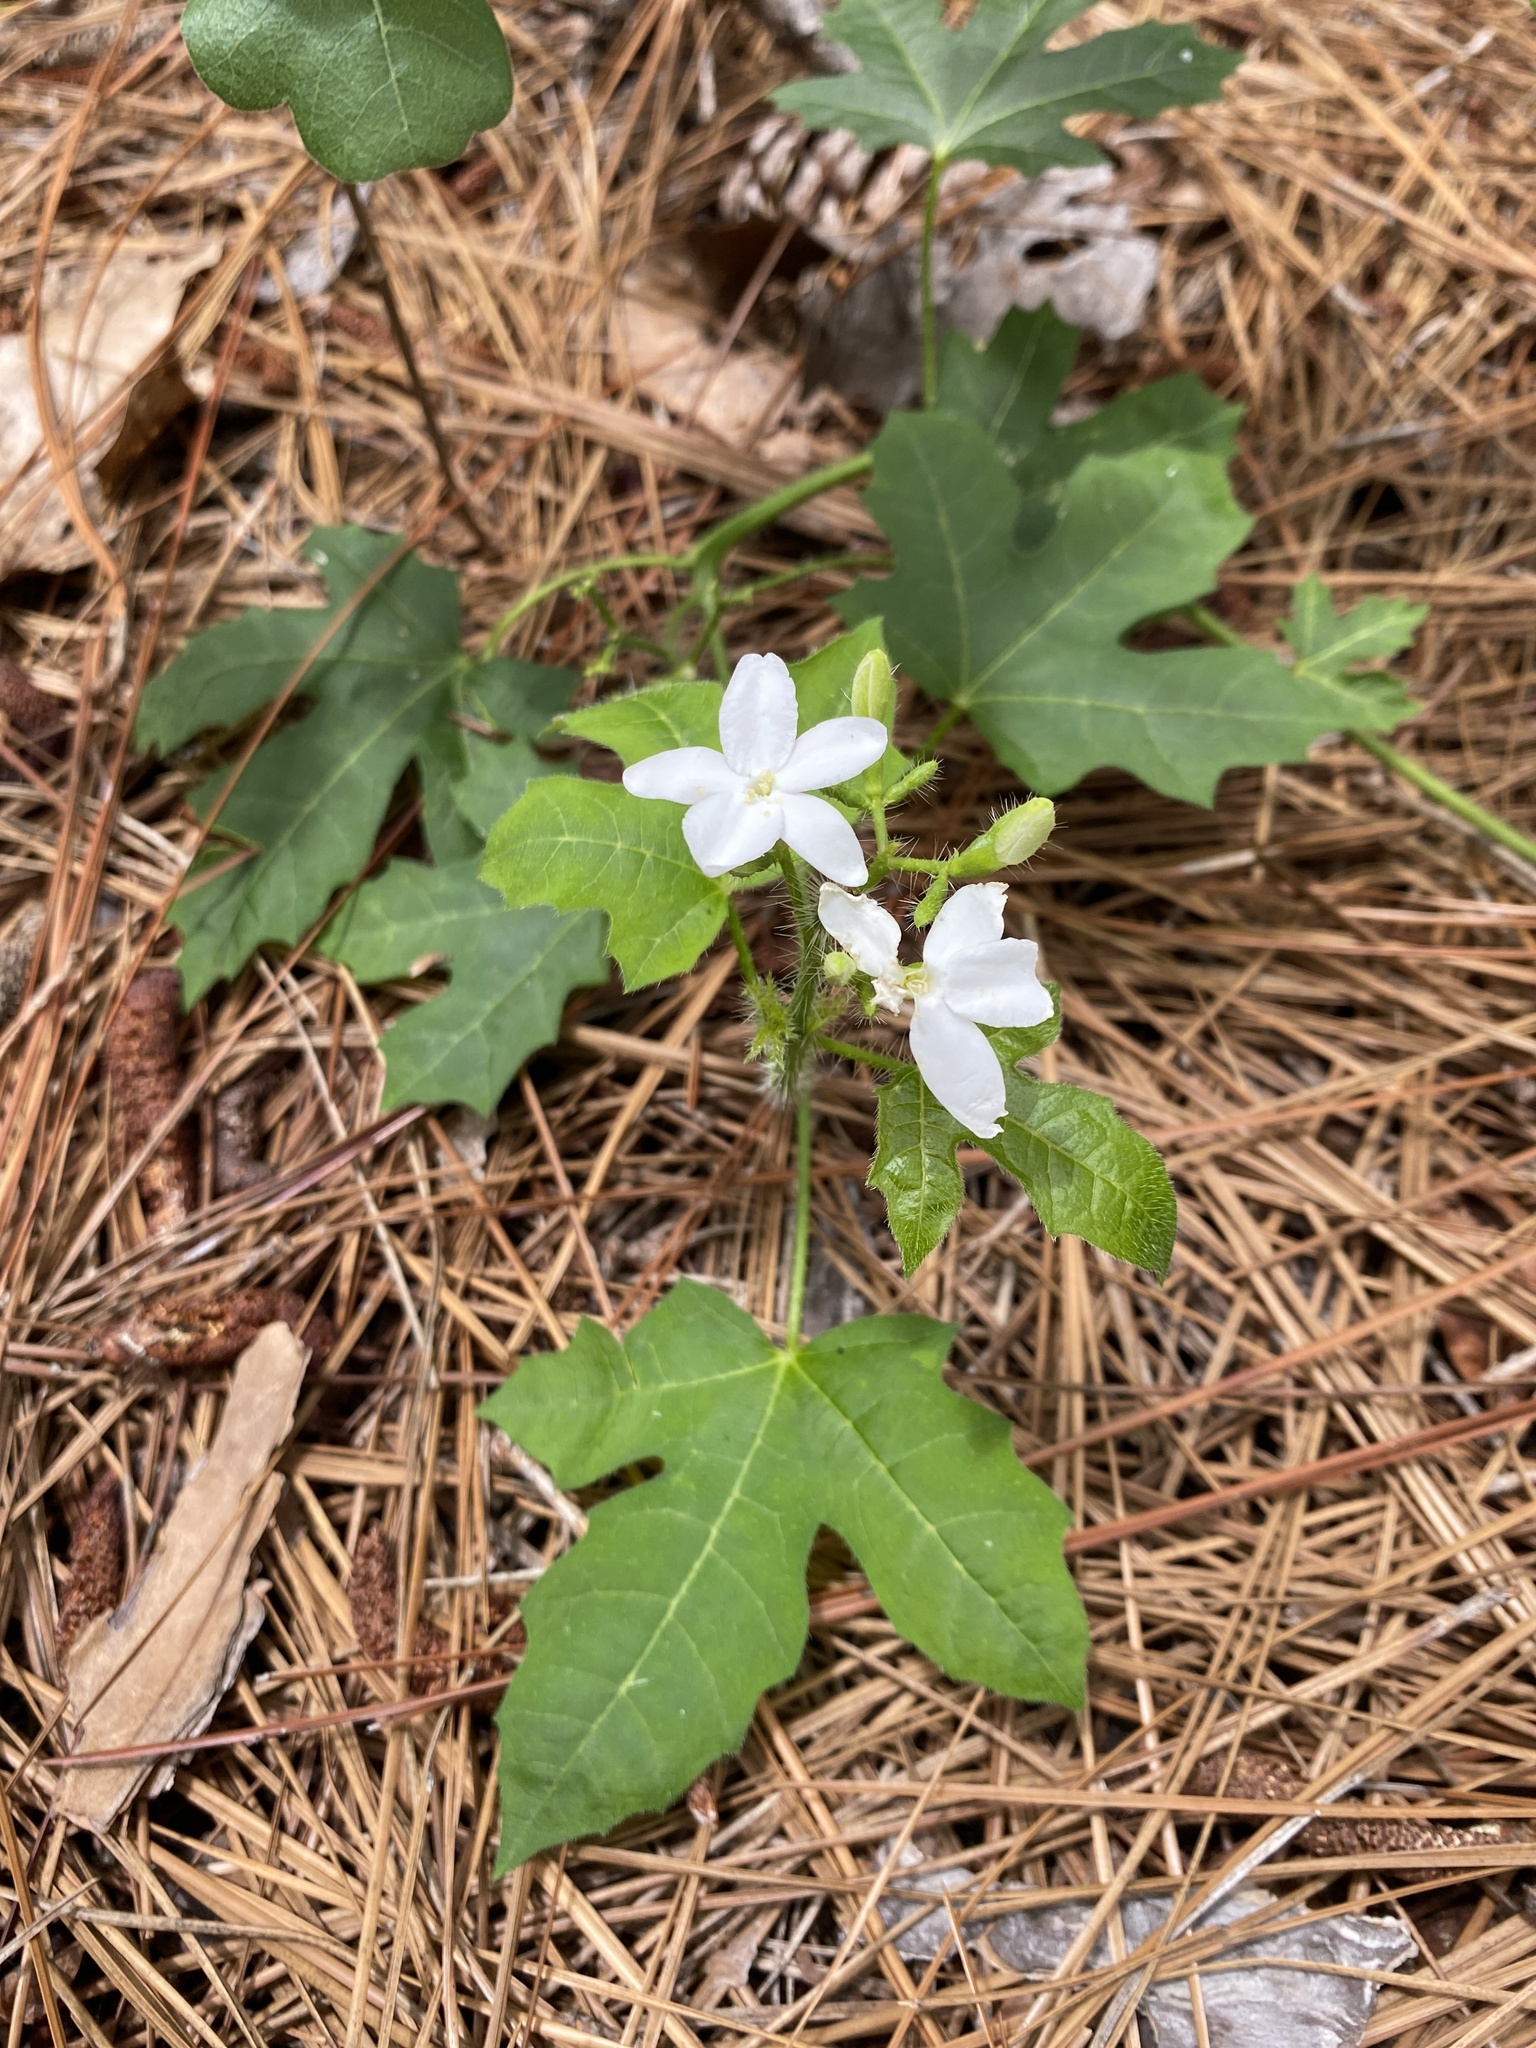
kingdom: Plantae
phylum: Tracheophyta
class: Magnoliopsida
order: Malpighiales
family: Euphorbiaceae
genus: Cnidoscolus
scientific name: Cnidoscolus stimulosus
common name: Bull-nettle
